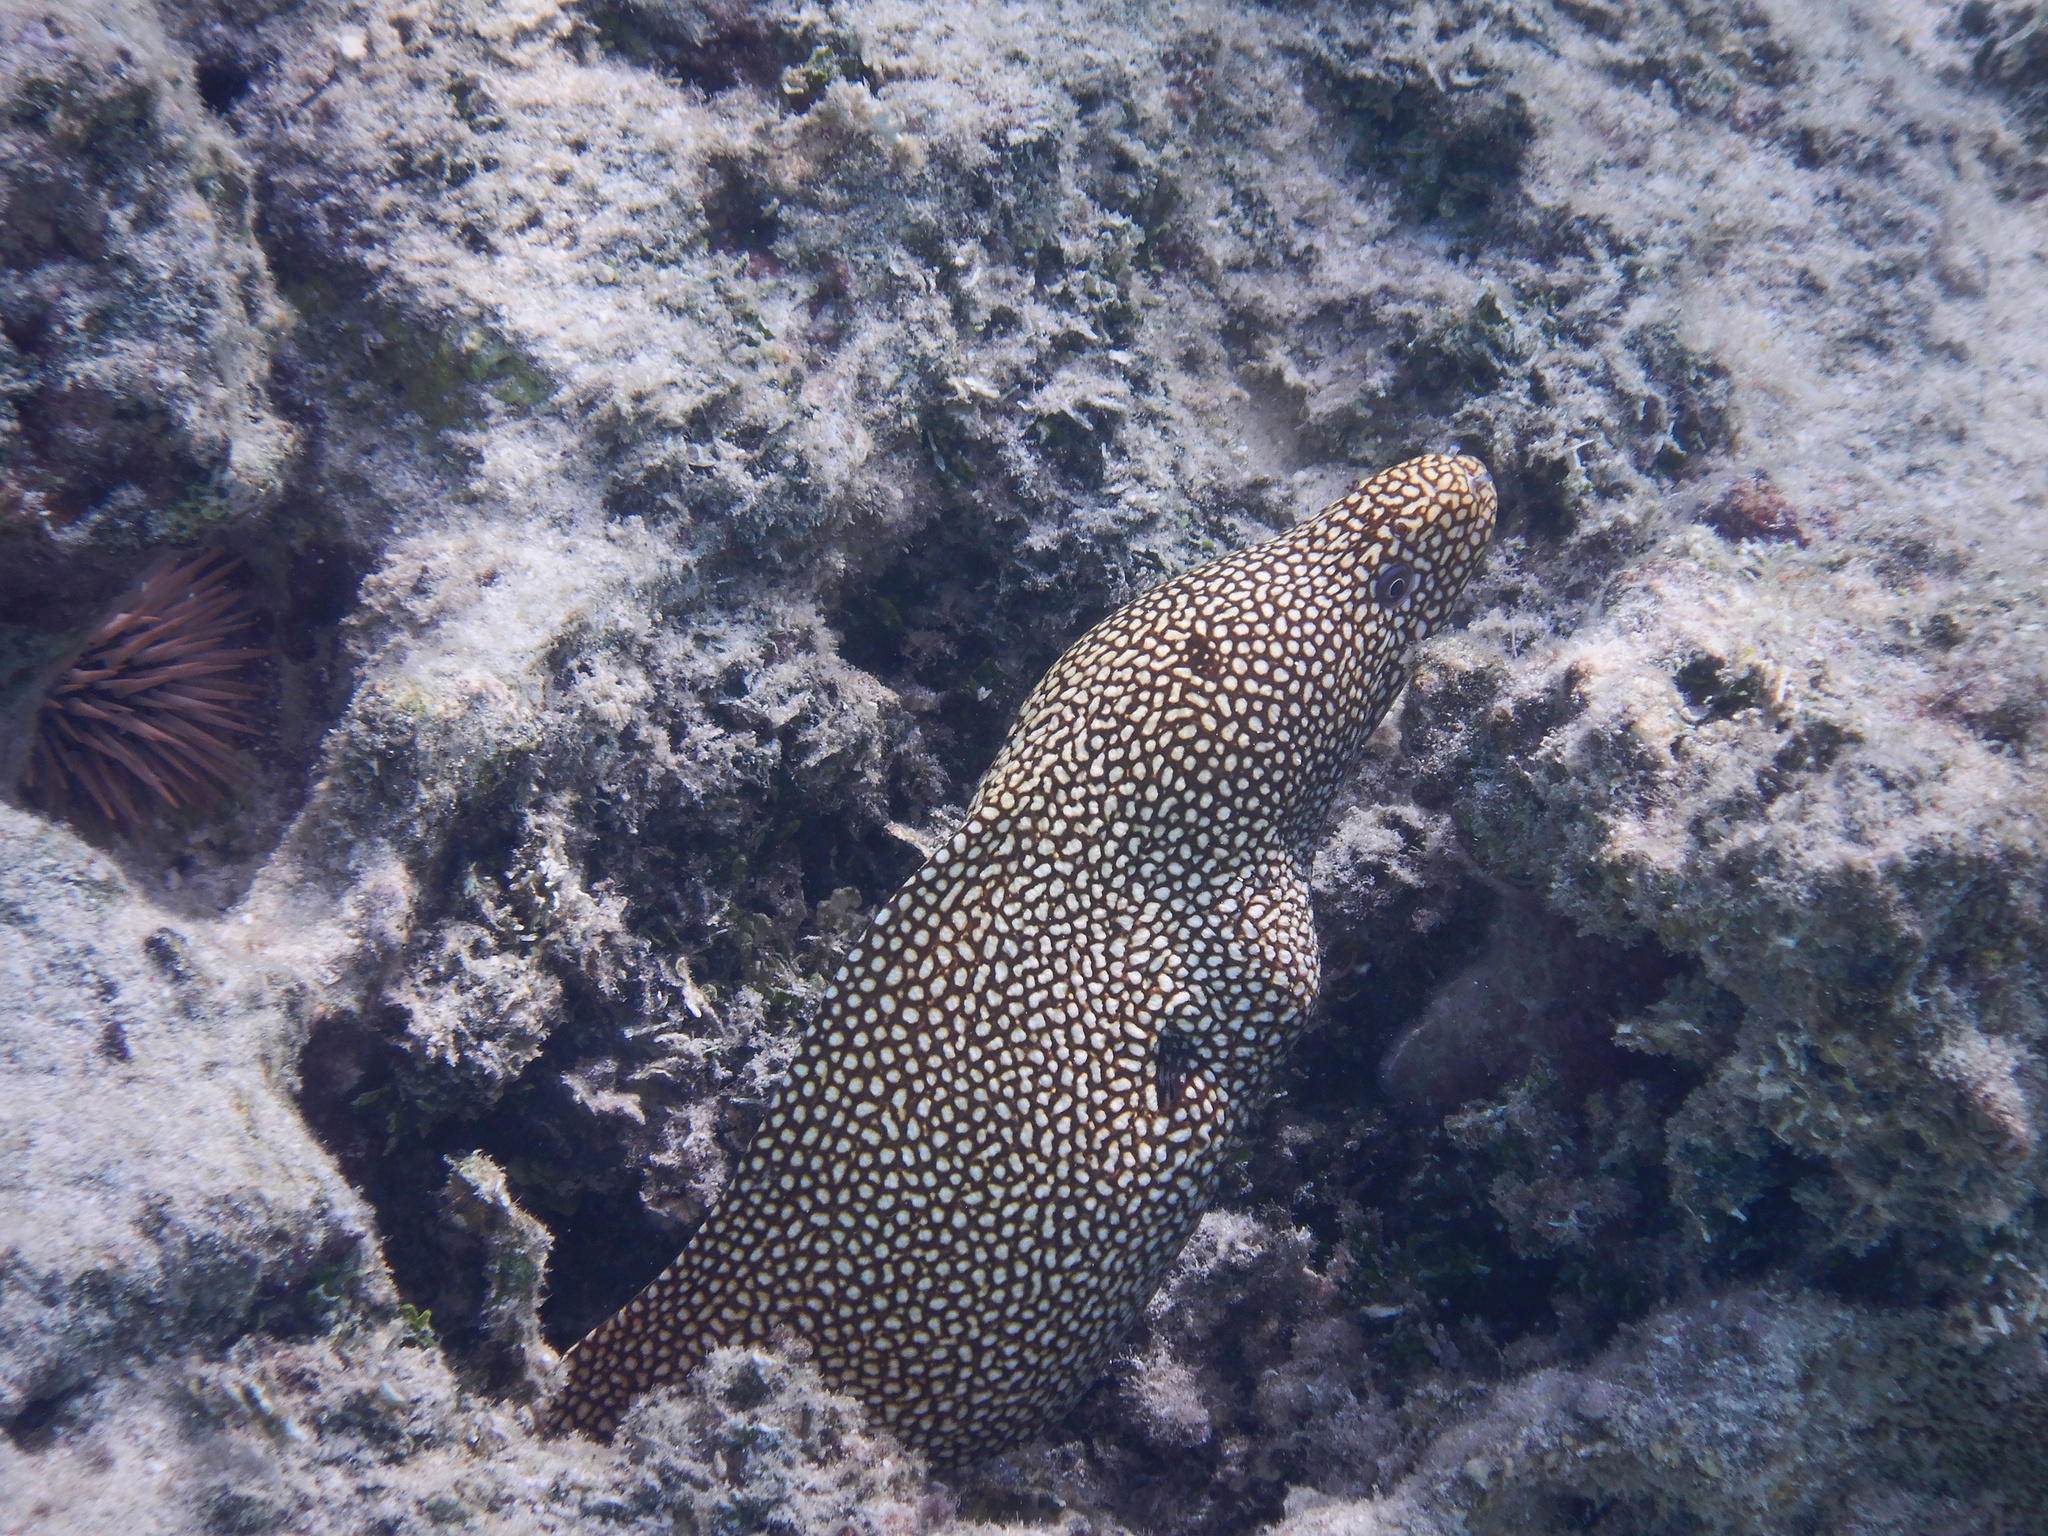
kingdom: Animalia
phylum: Chordata
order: Anguilliformes
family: Muraenidae
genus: Gymnothorax
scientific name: Gymnothorax meleagris
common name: Guineafowl moray
